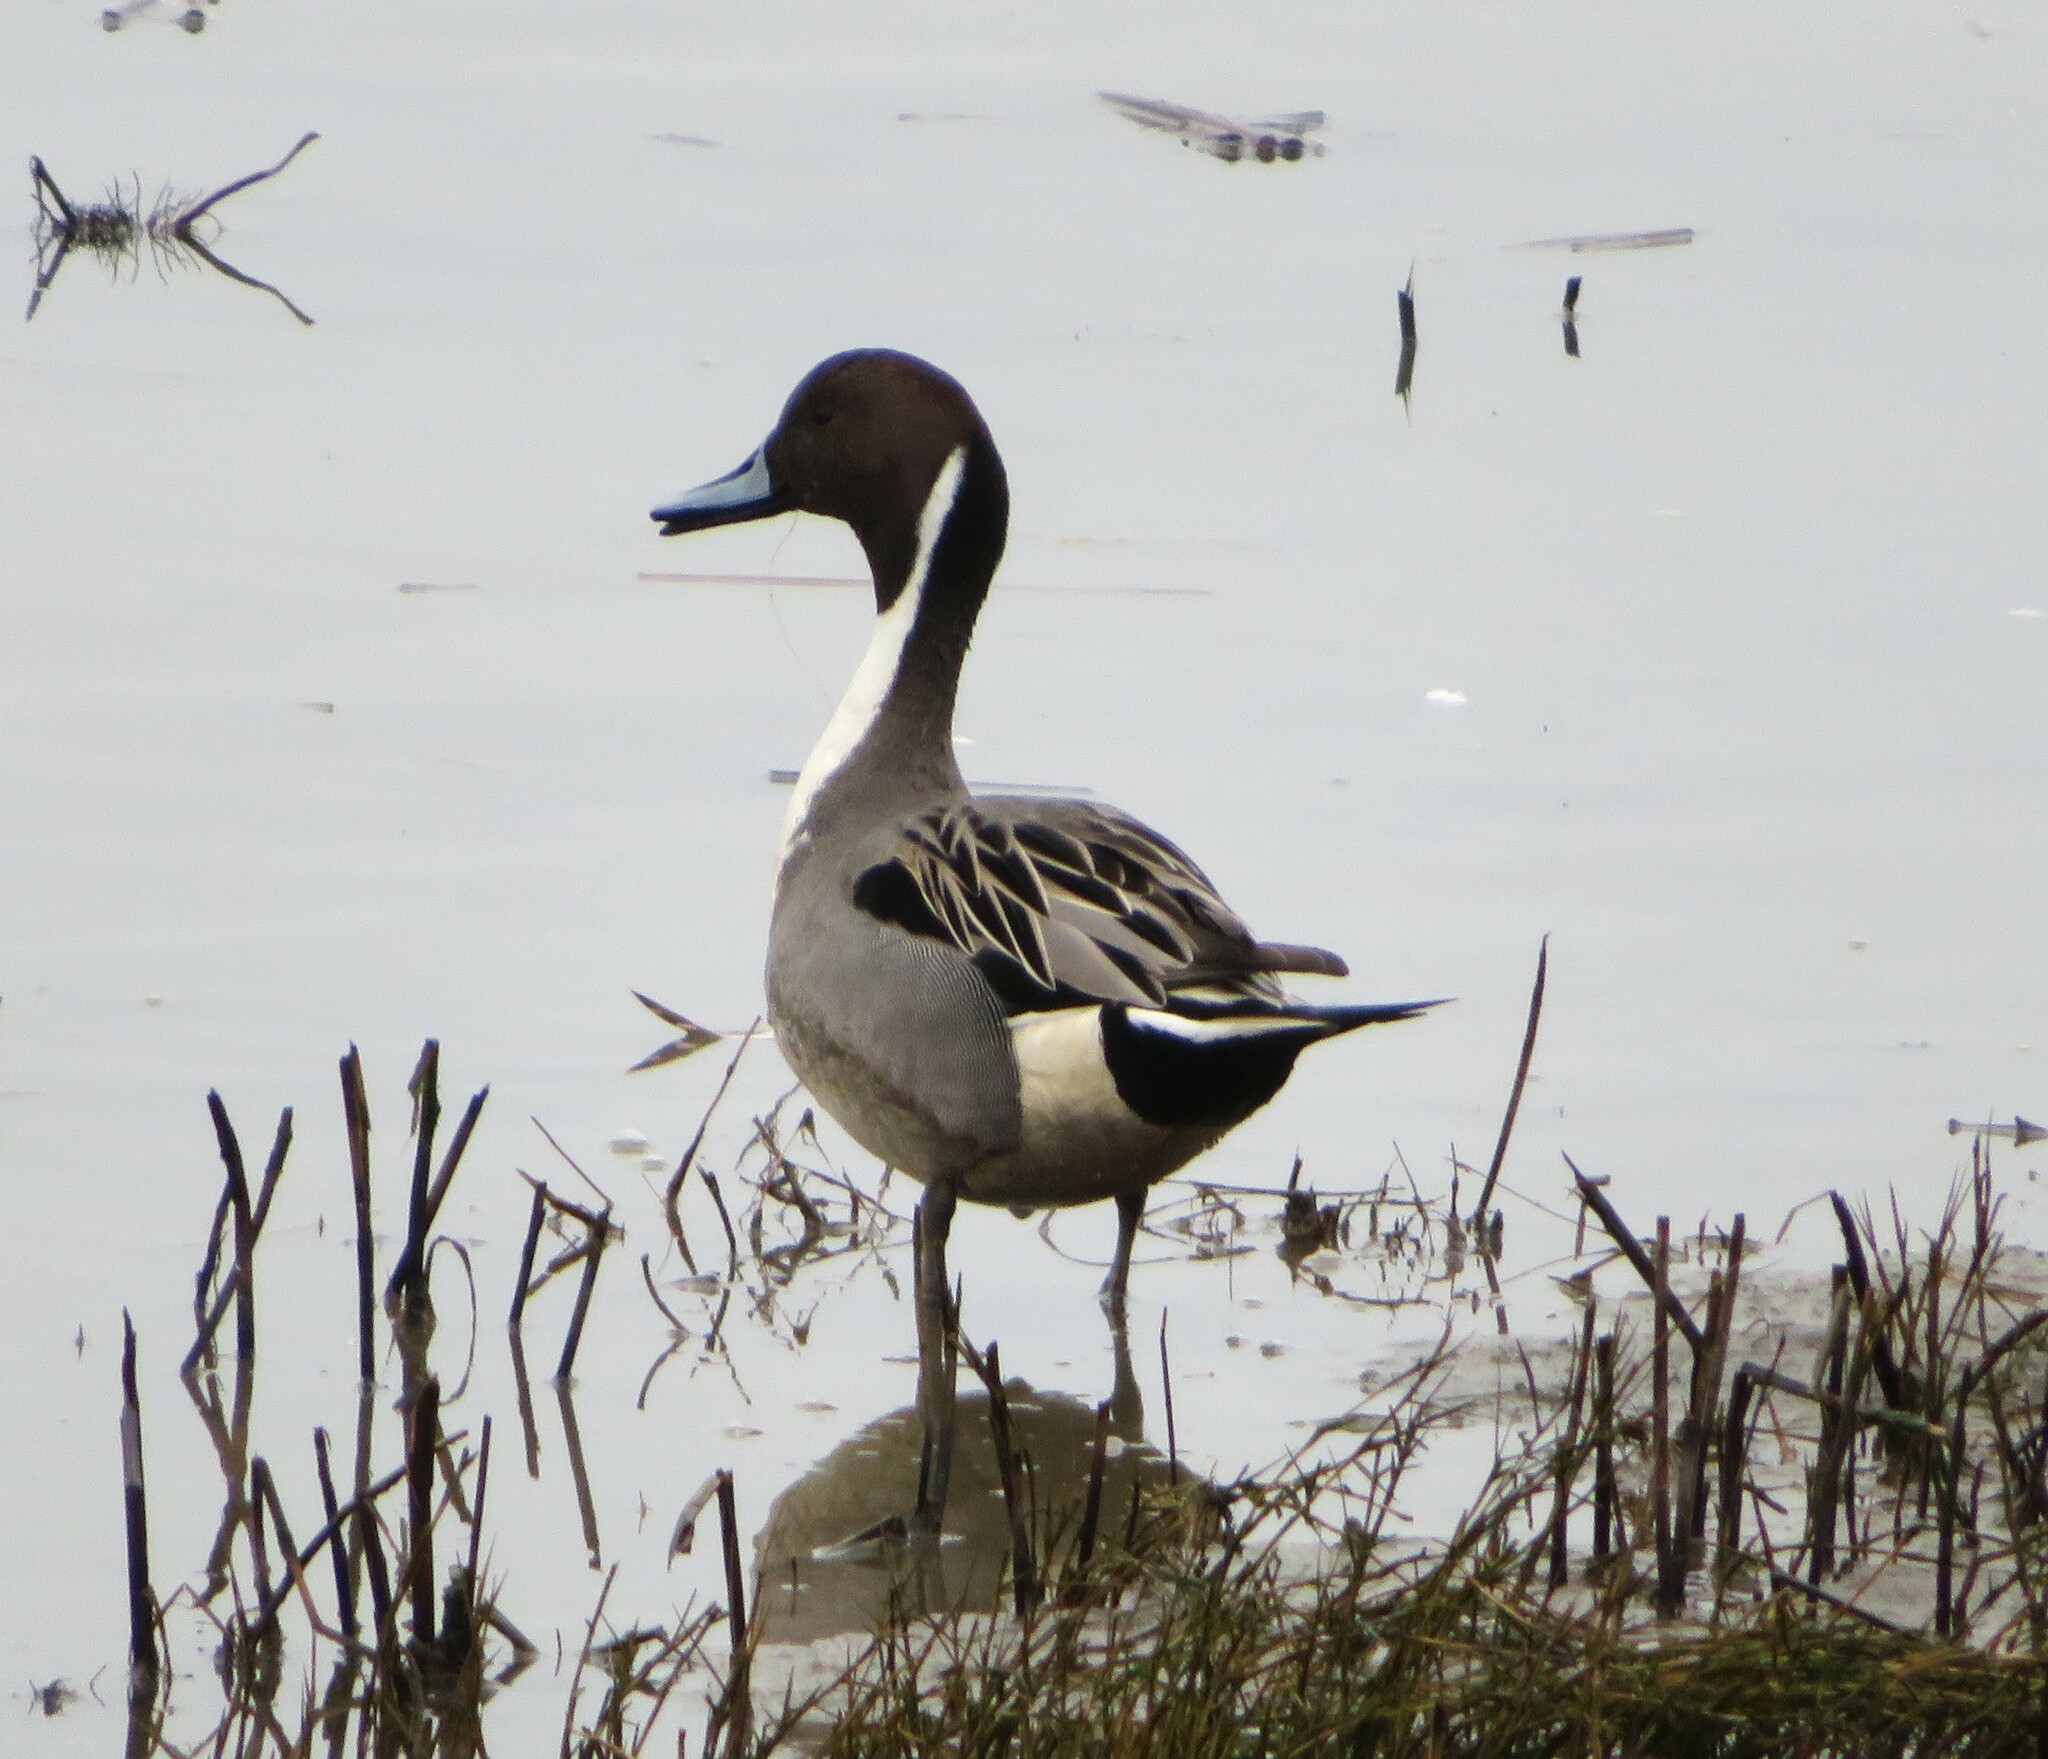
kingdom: Animalia
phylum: Chordata
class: Aves
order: Anseriformes
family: Anatidae
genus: Anas
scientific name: Anas acuta
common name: Northern pintail
